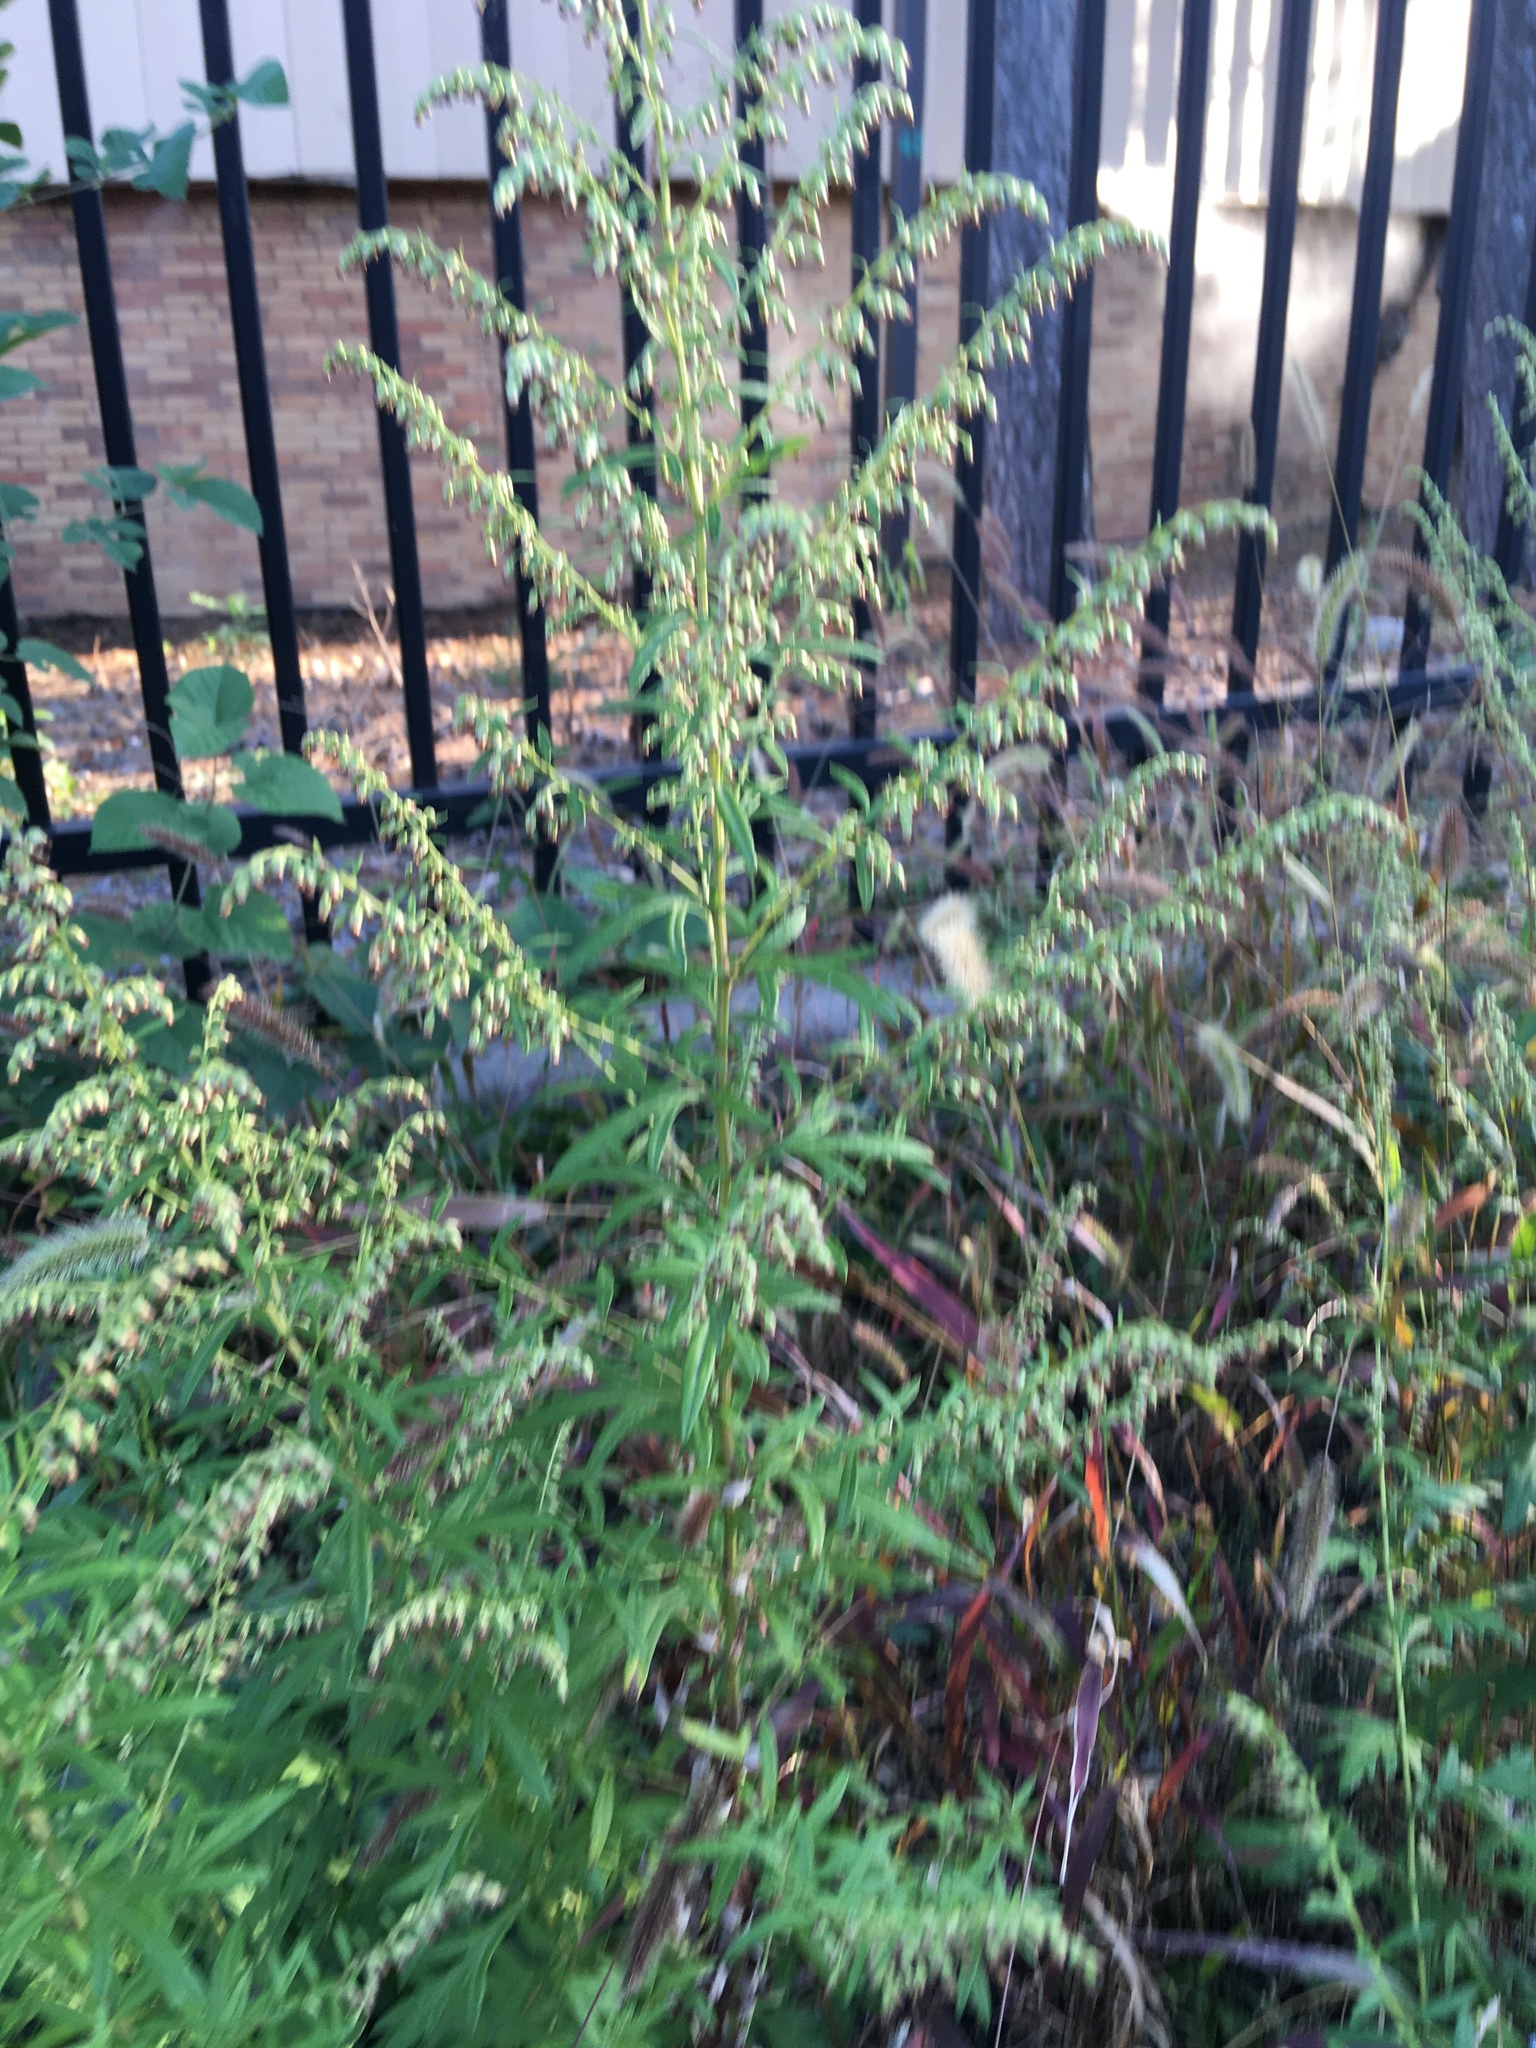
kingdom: Plantae
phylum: Tracheophyta
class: Magnoliopsida
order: Asterales
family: Asteraceae
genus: Artemisia
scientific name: Artemisia vulgaris
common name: Mugwort
